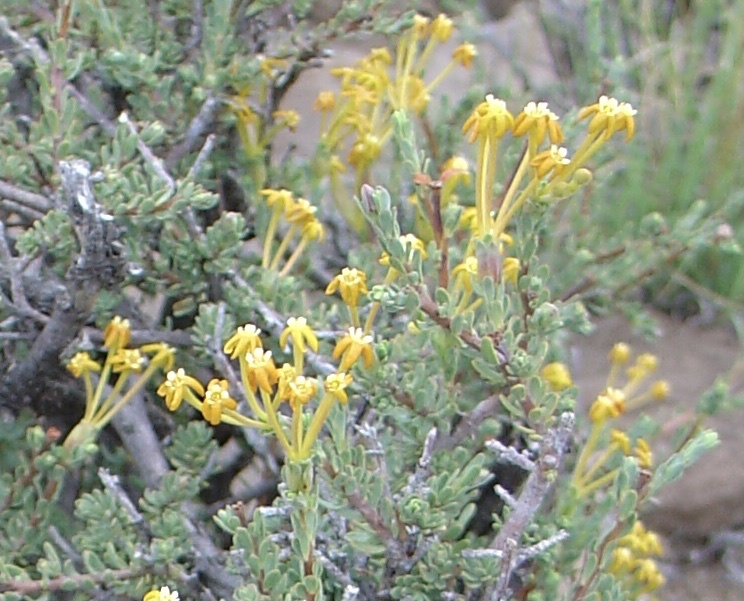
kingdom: Plantae
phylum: Tracheophyta
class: Magnoliopsida
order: Malvales
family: Thymelaeaceae
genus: Gnidia
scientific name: Gnidia cuneata
